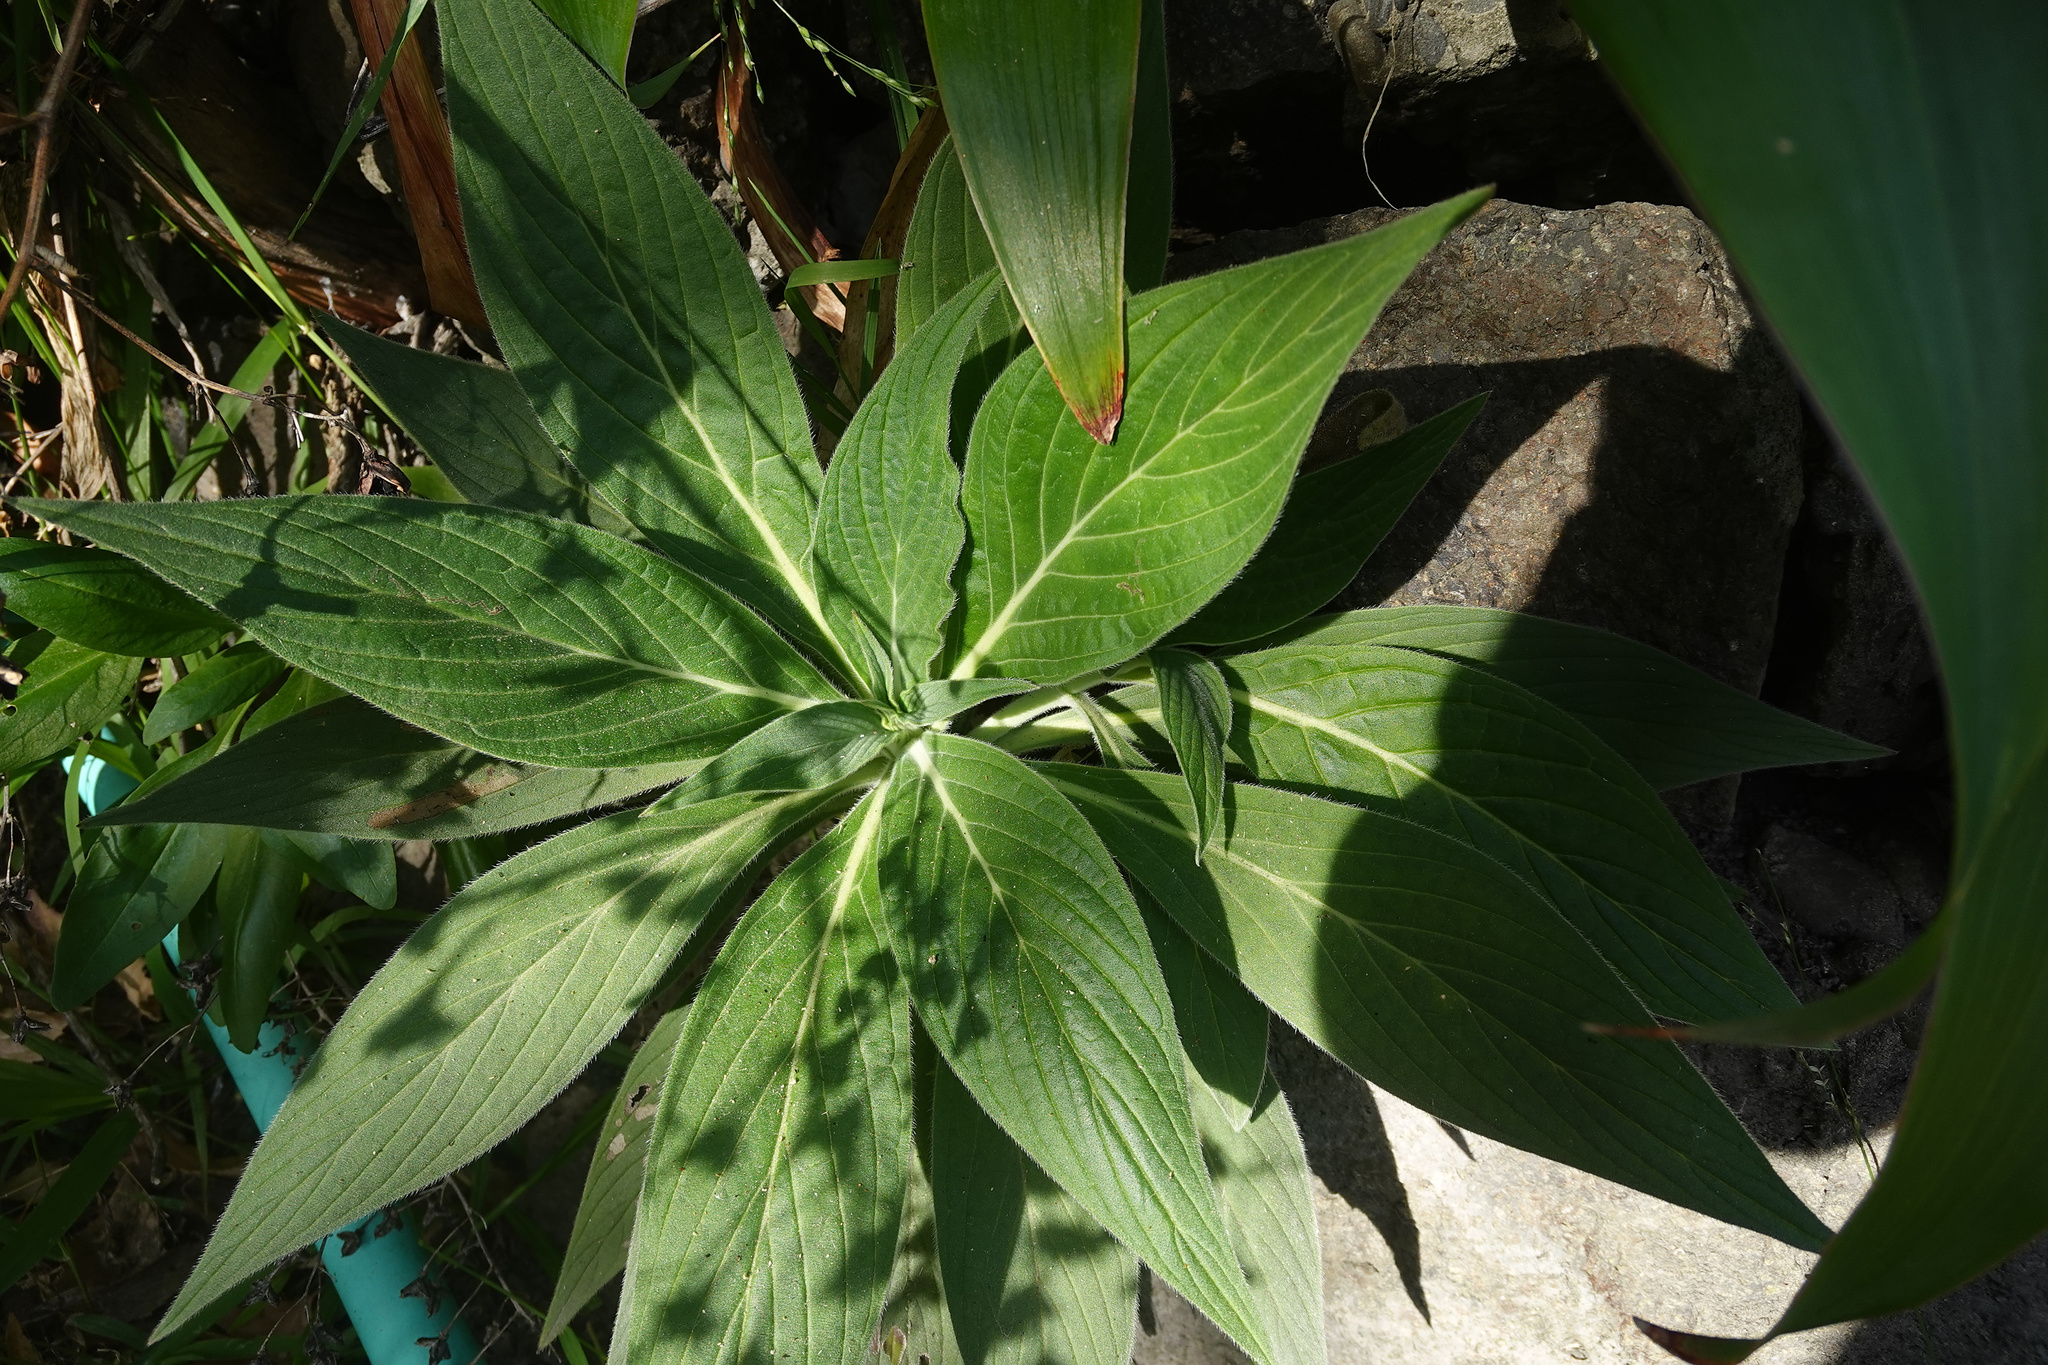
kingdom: Plantae
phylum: Tracheophyta
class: Magnoliopsida
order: Boraginales
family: Boraginaceae
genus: Echium
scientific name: Echium candicans
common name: Pride of madeira
